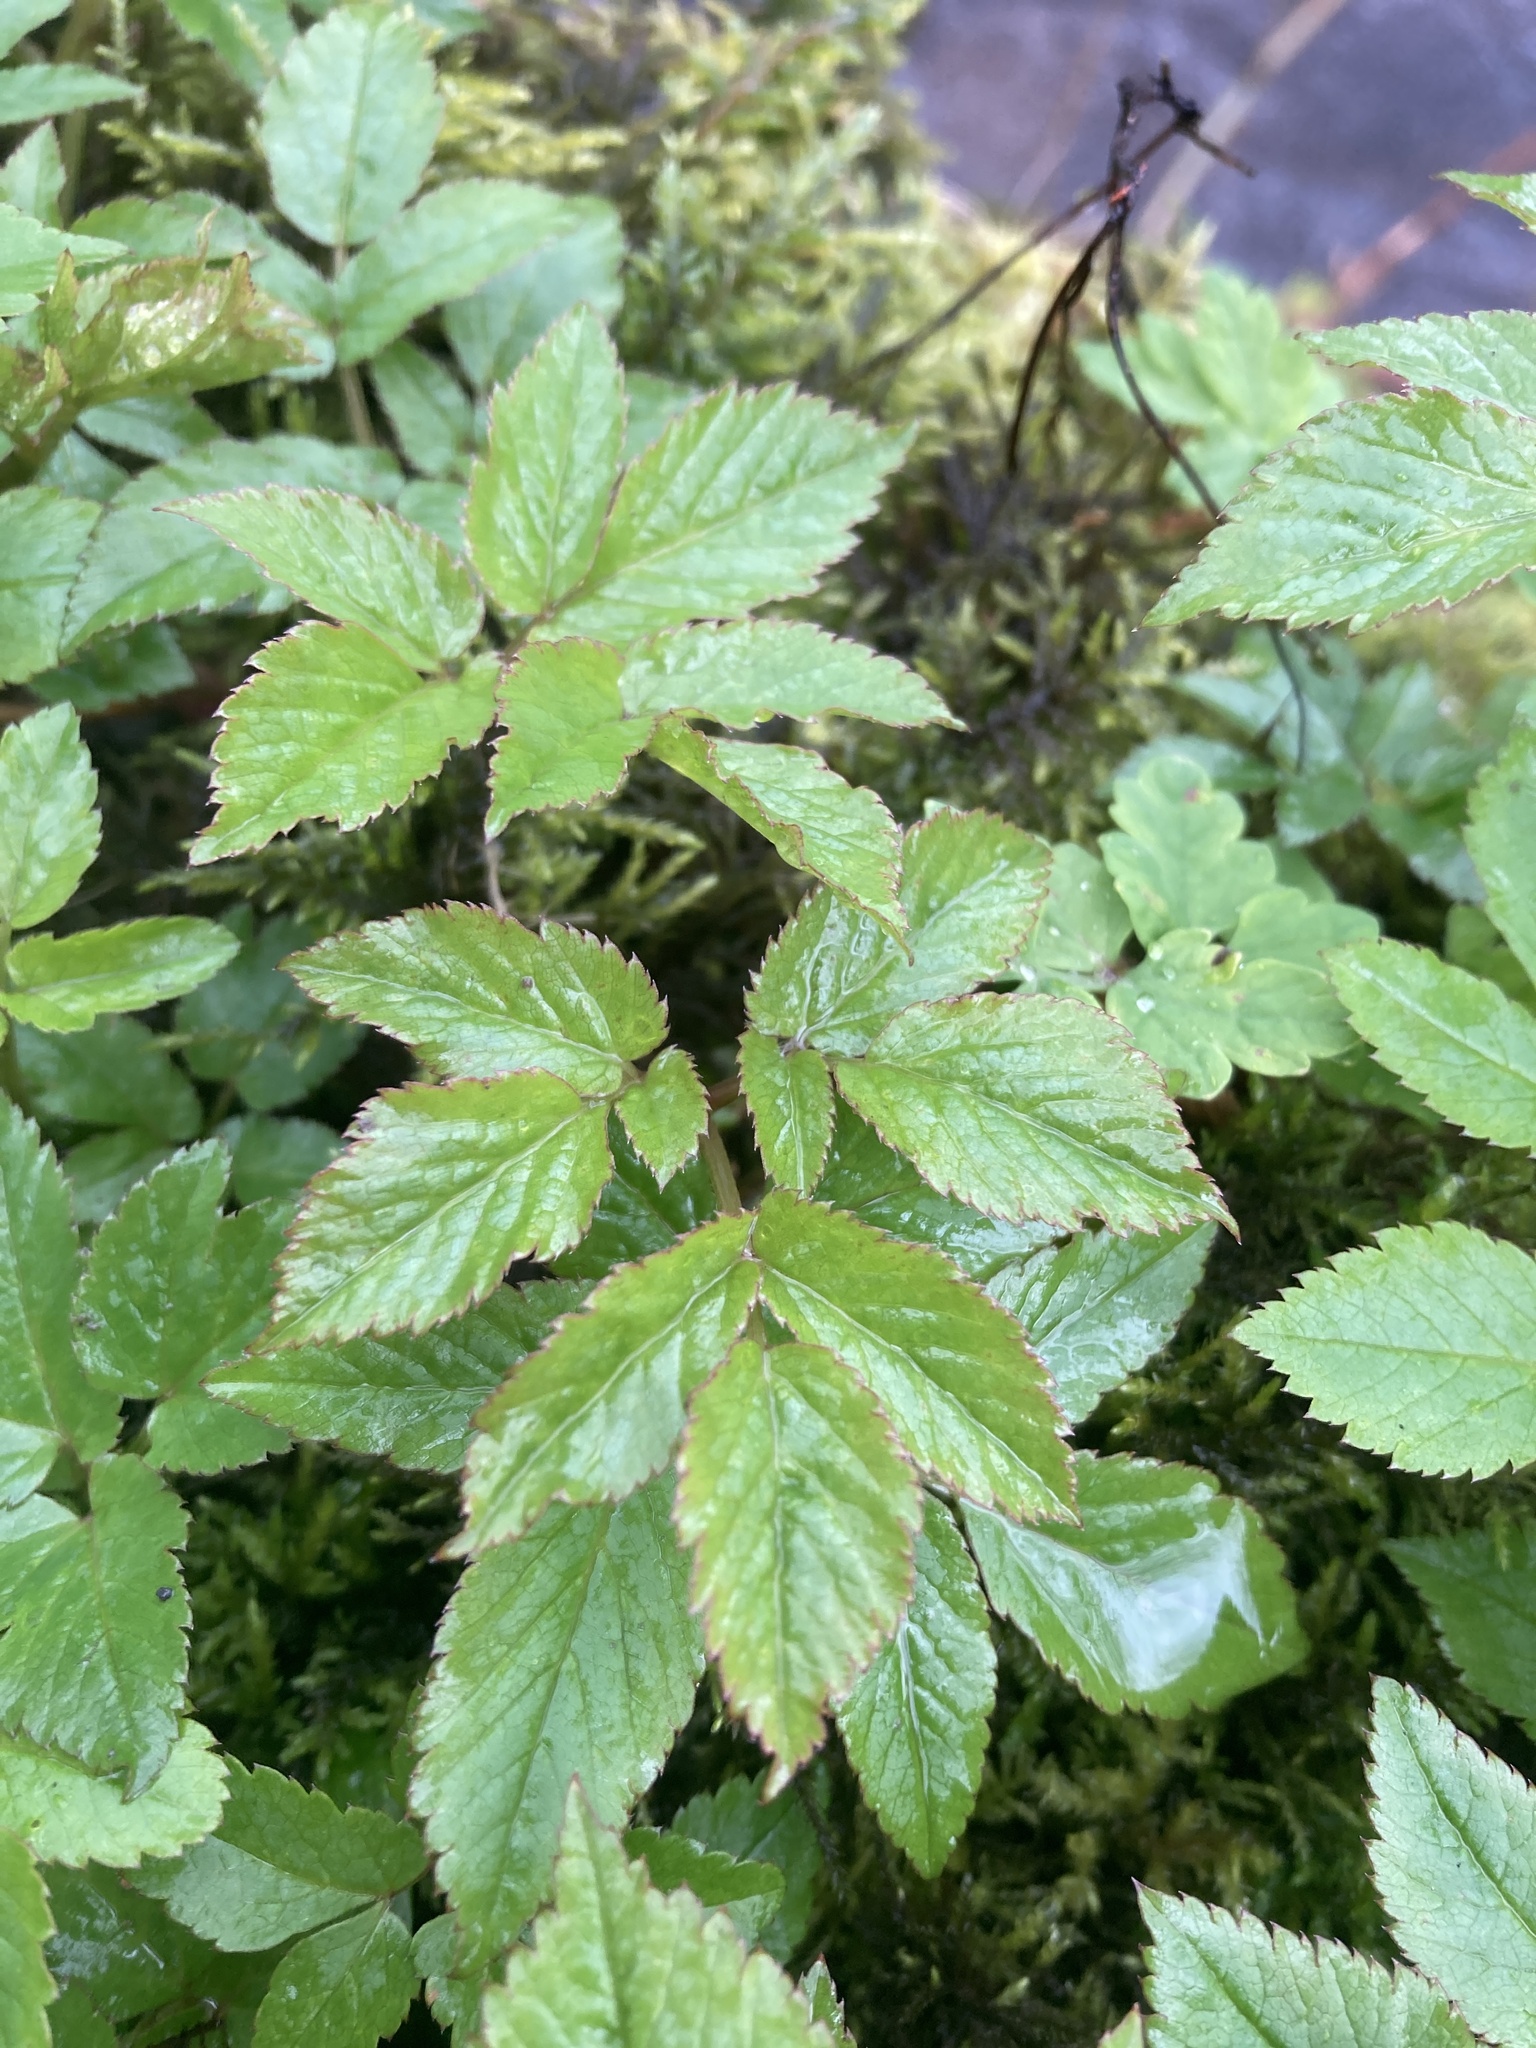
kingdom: Plantae
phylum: Tracheophyta
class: Magnoliopsida
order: Apiales
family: Apiaceae
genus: Aegopodium
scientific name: Aegopodium podagraria
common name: Ground-elder
